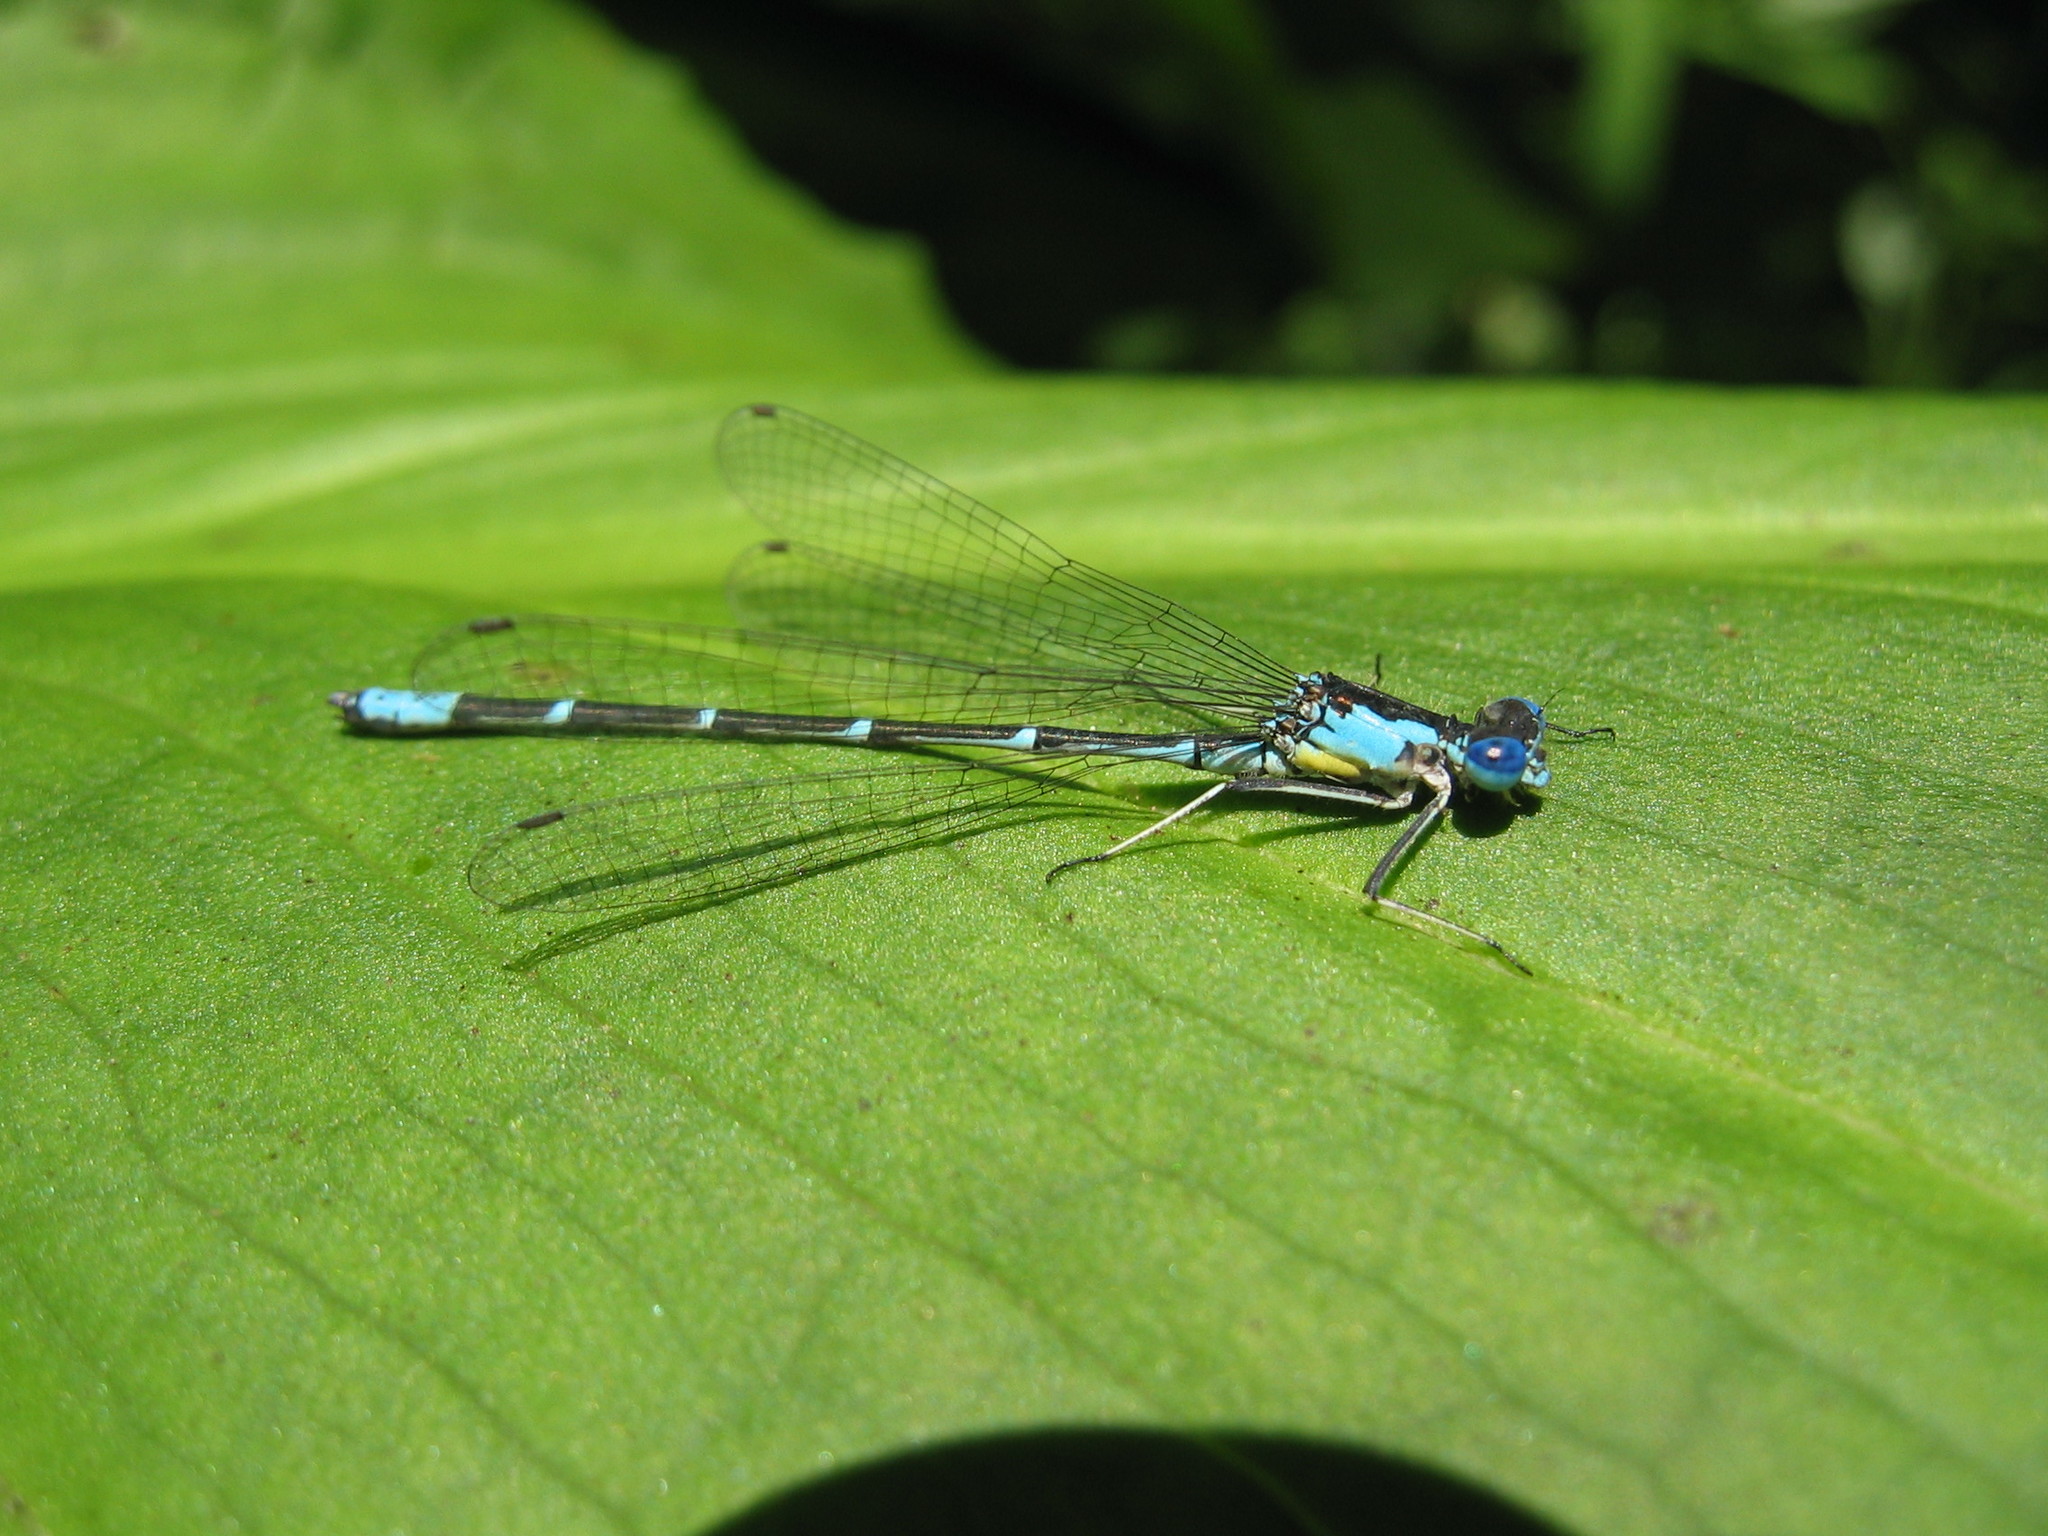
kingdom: Animalia
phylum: Arthropoda
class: Insecta
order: Odonata
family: Coenagrionidae
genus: Chromagrion
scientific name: Chromagrion conditum
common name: Aurora damsel
